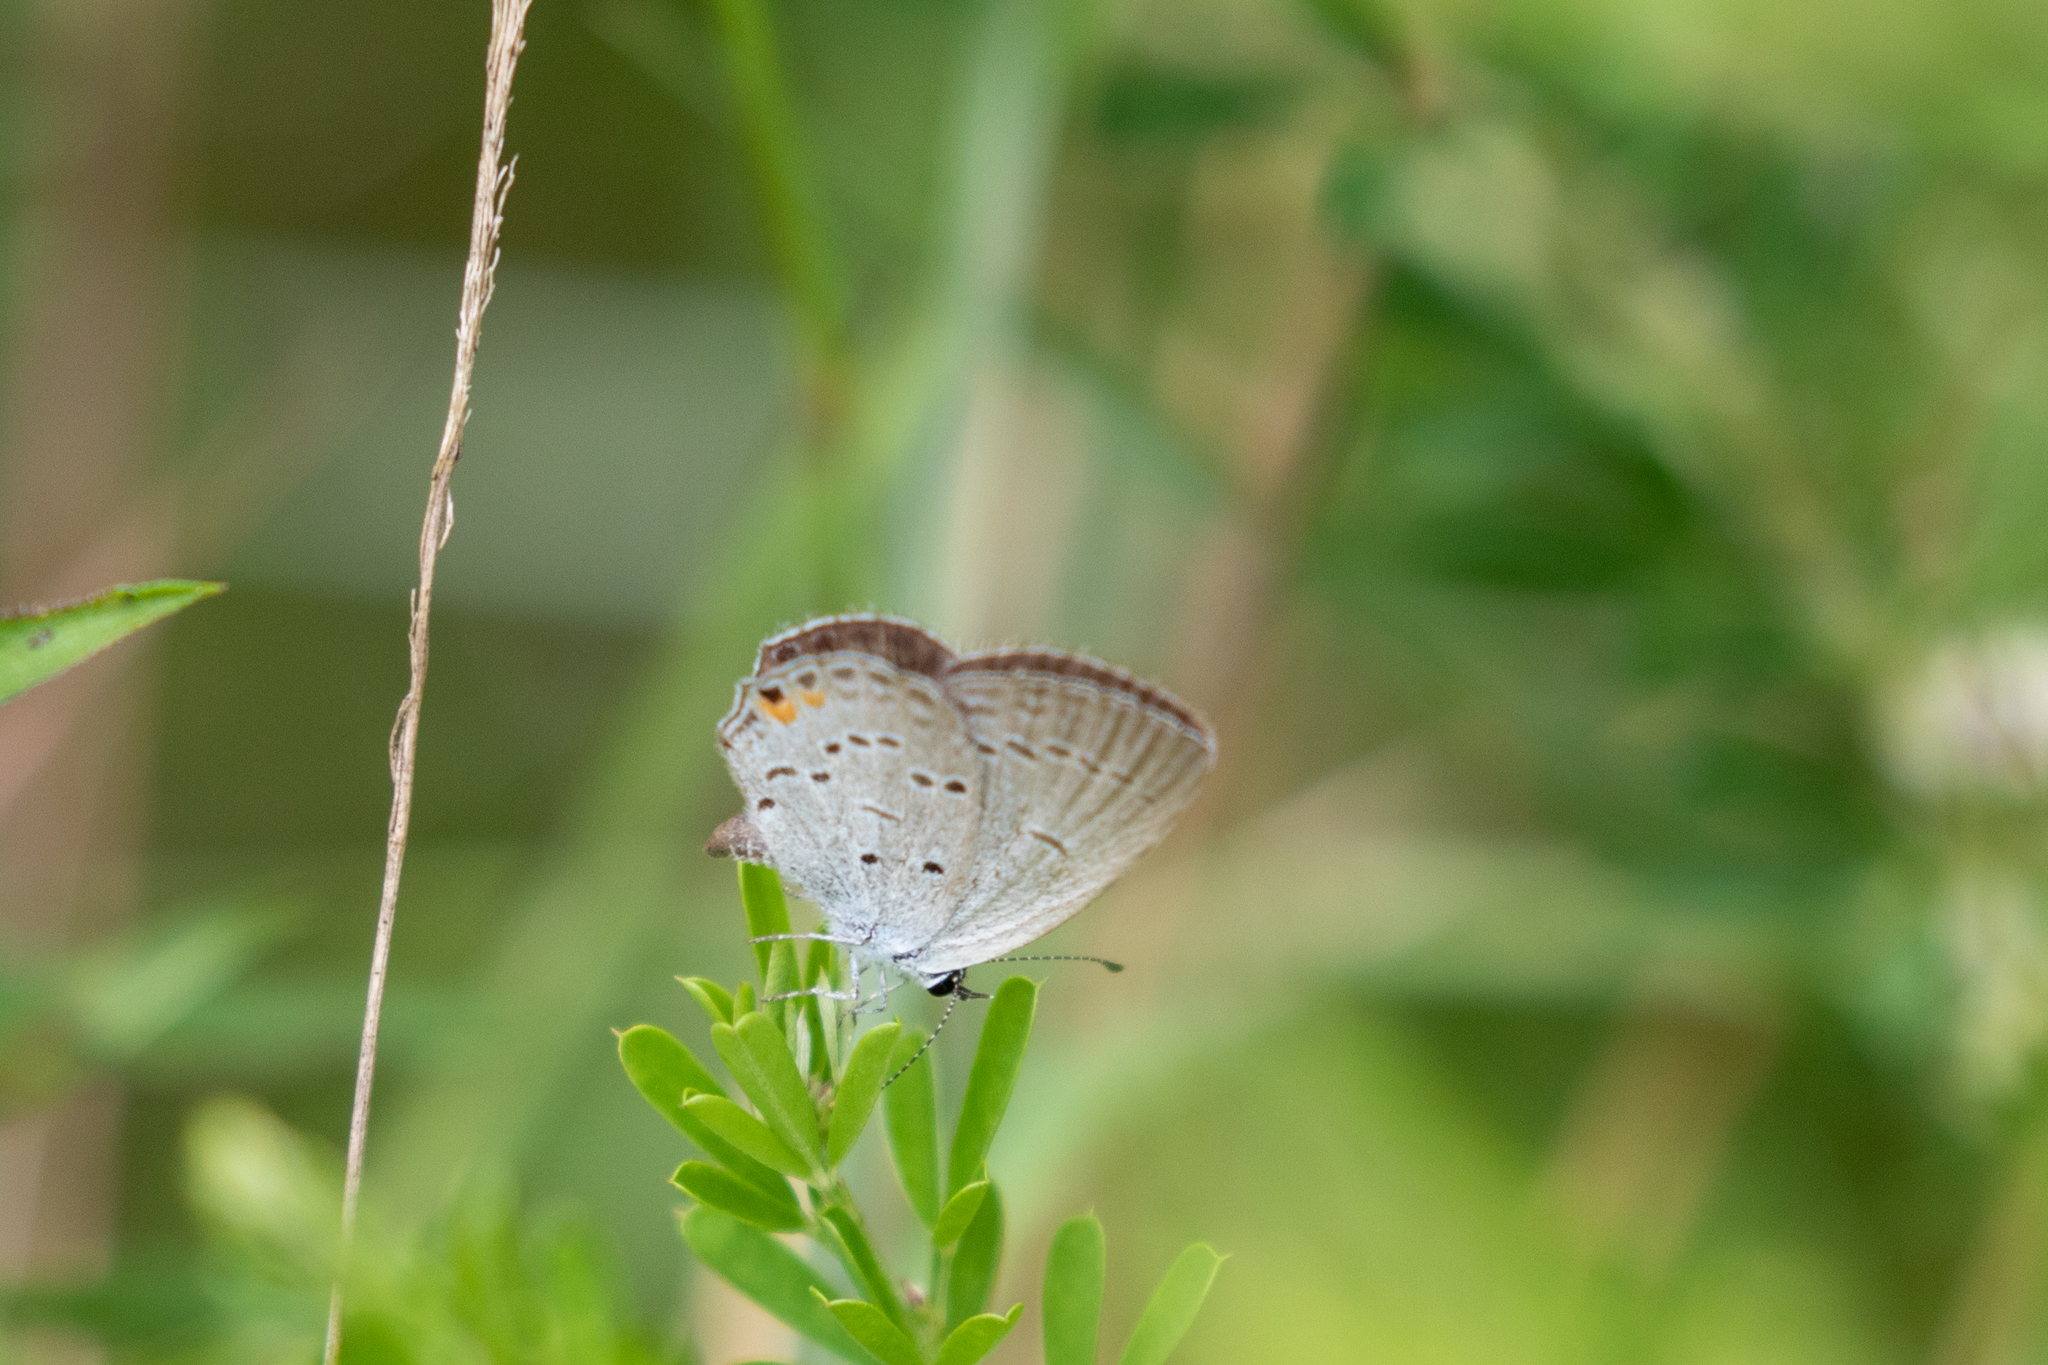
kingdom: Animalia
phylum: Arthropoda
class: Insecta
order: Lepidoptera
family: Lycaenidae
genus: Elkalyce
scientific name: Elkalyce comyntas
